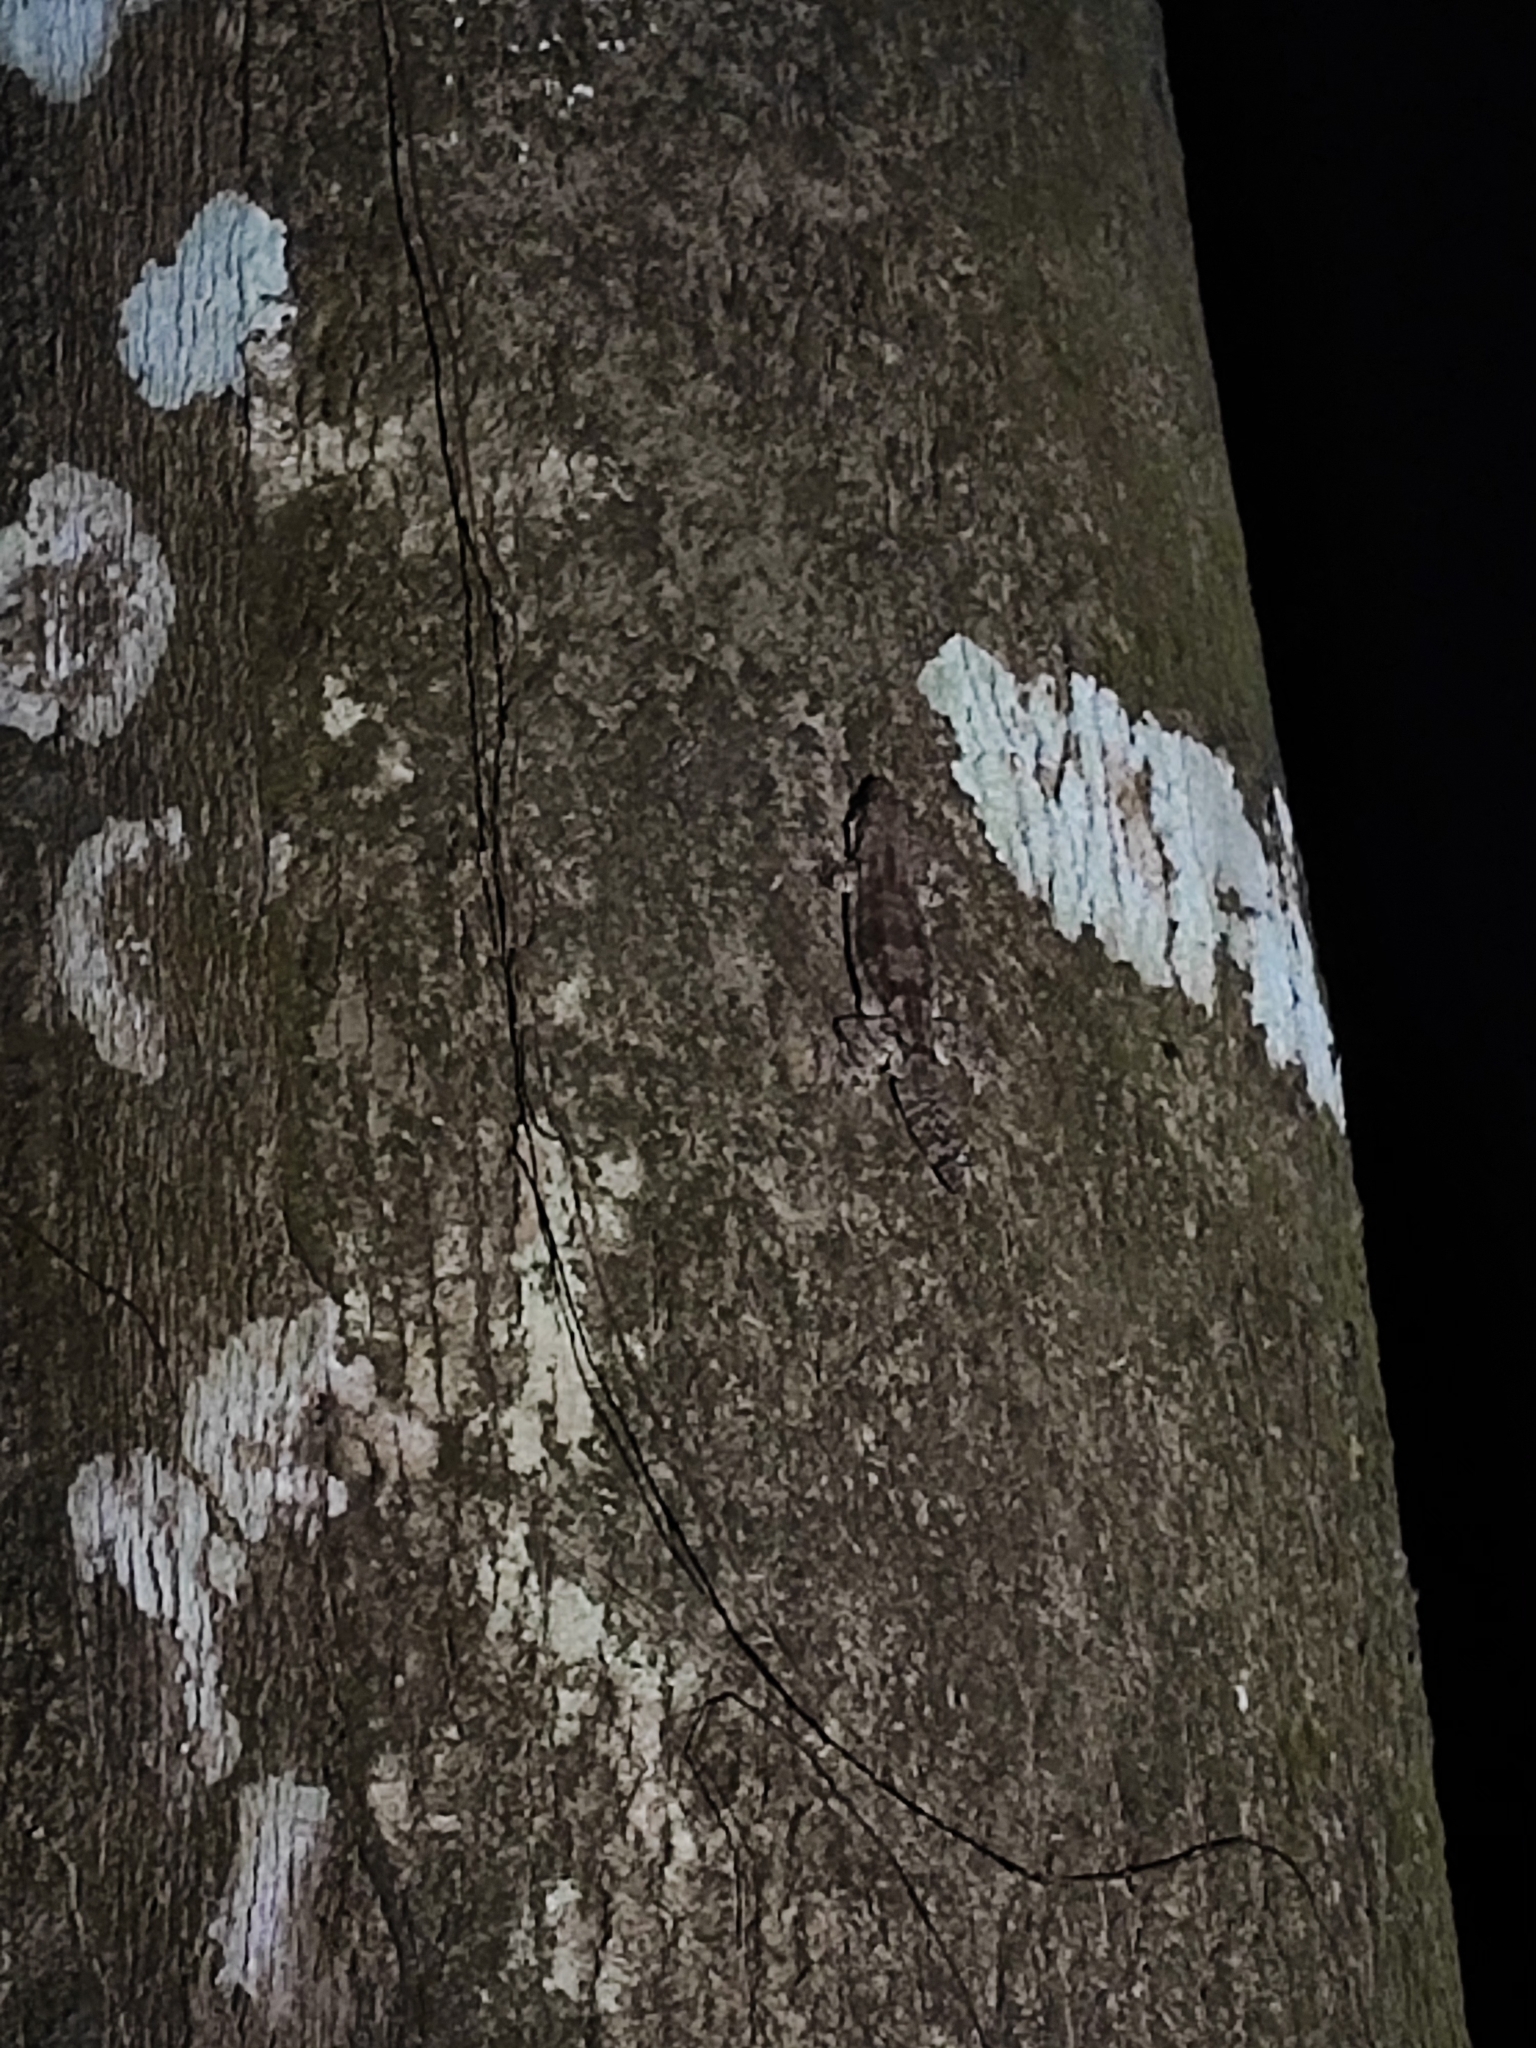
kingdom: Animalia
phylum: Chordata
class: Squamata
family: Gekkonidae
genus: Gekko
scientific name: Gekko kuhli
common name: Gliding gecko
